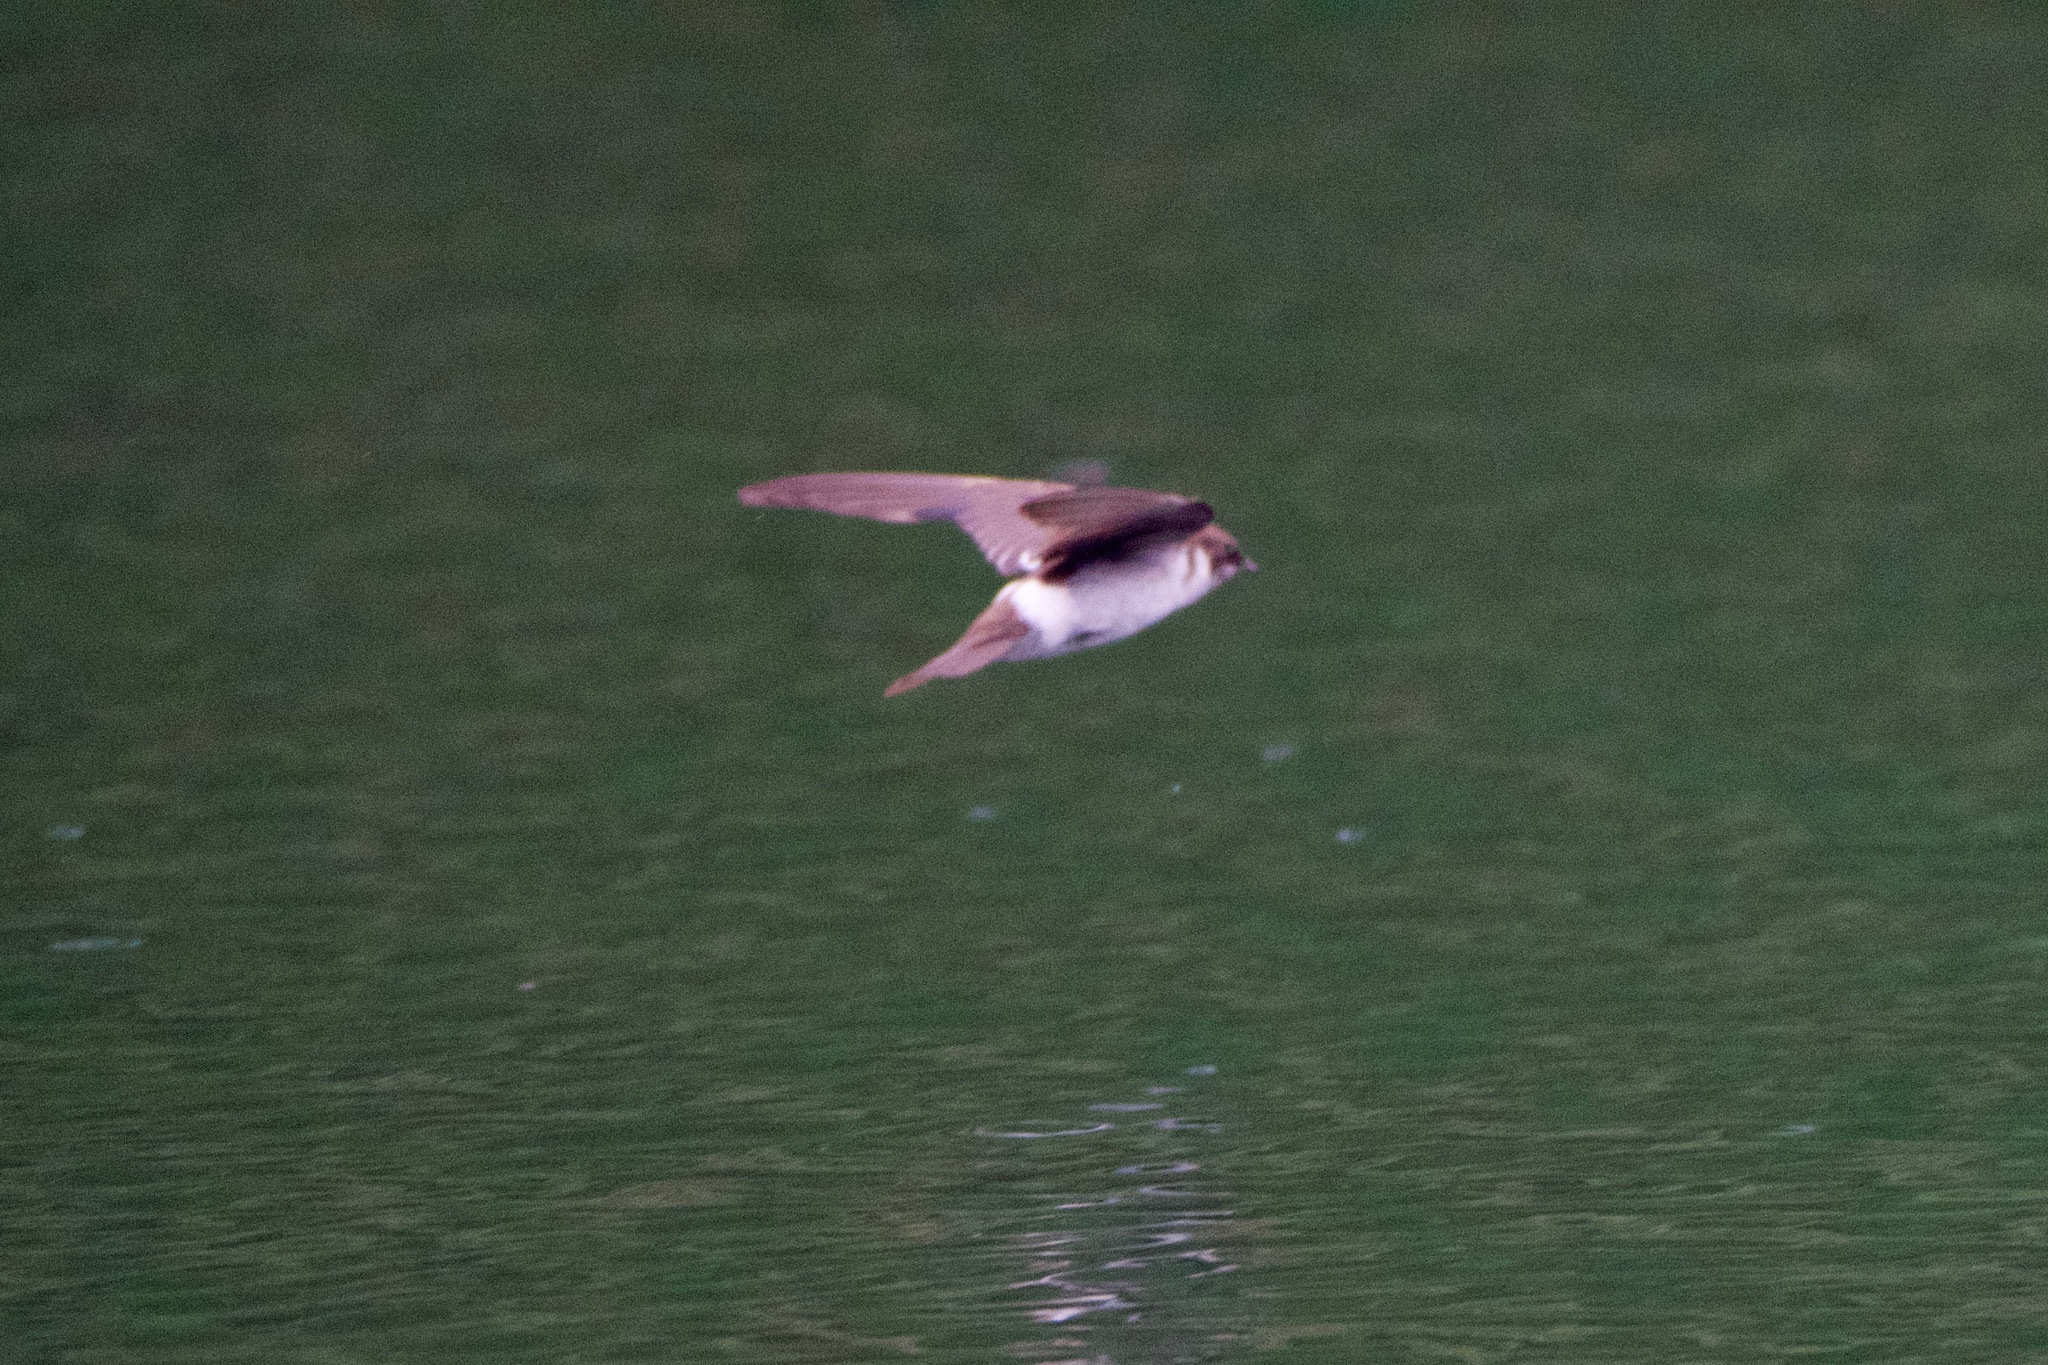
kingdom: Animalia
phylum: Chordata
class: Aves
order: Passeriformes
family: Hirundinidae
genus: Tachycineta
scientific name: Tachycineta thalassina
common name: Violet-green swallow
